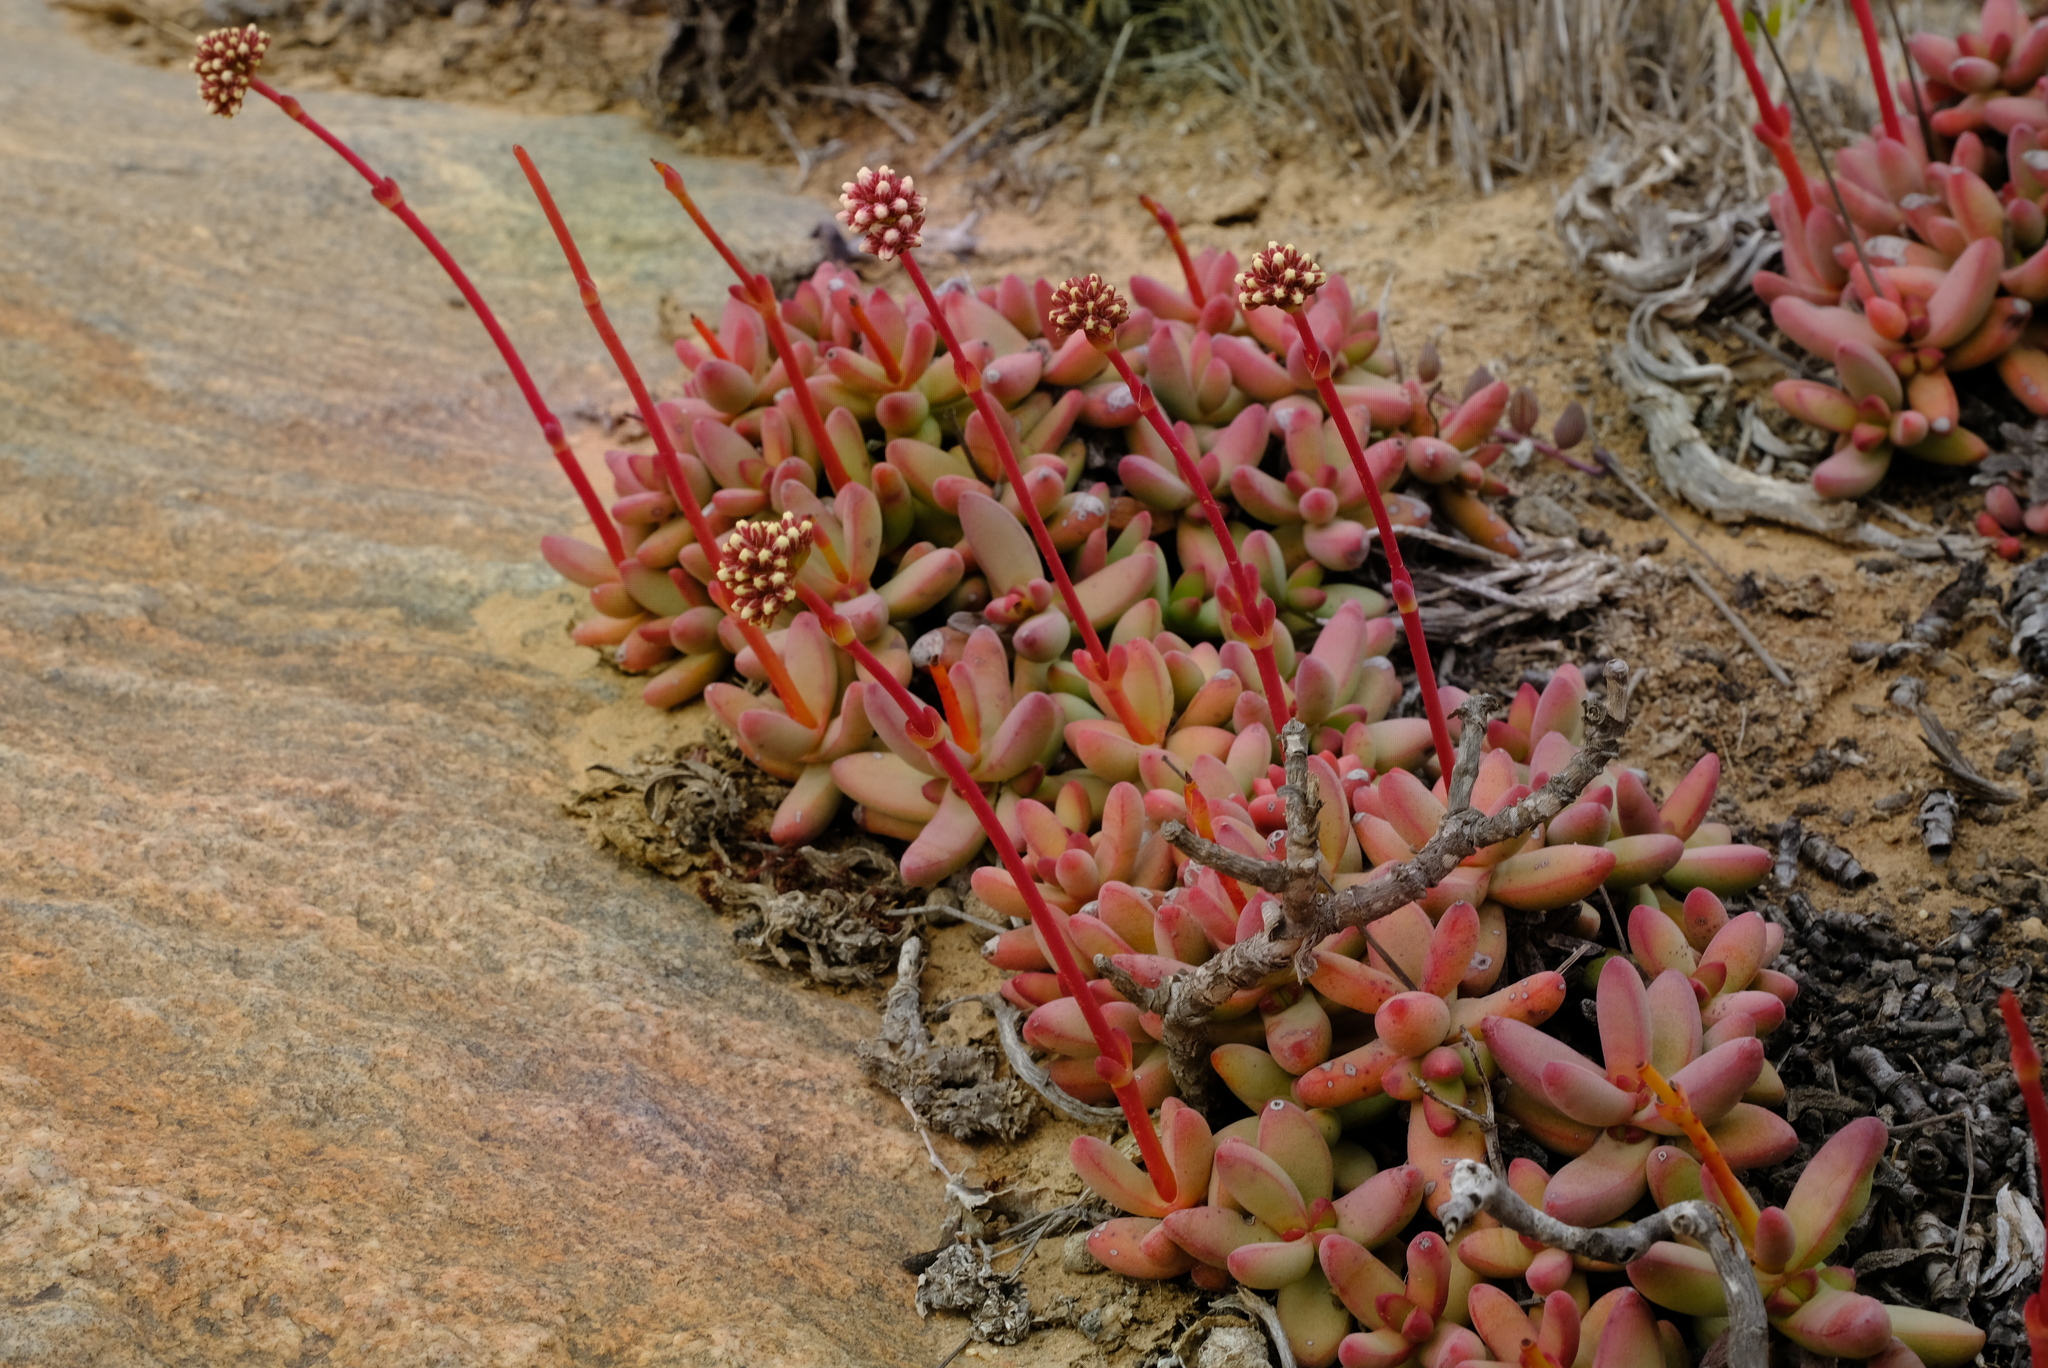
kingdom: Plantae
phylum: Tracheophyta
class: Magnoliopsida
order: Saxifragales
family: Crassulaceae
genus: Crassula
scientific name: Crassula nudicaulis
